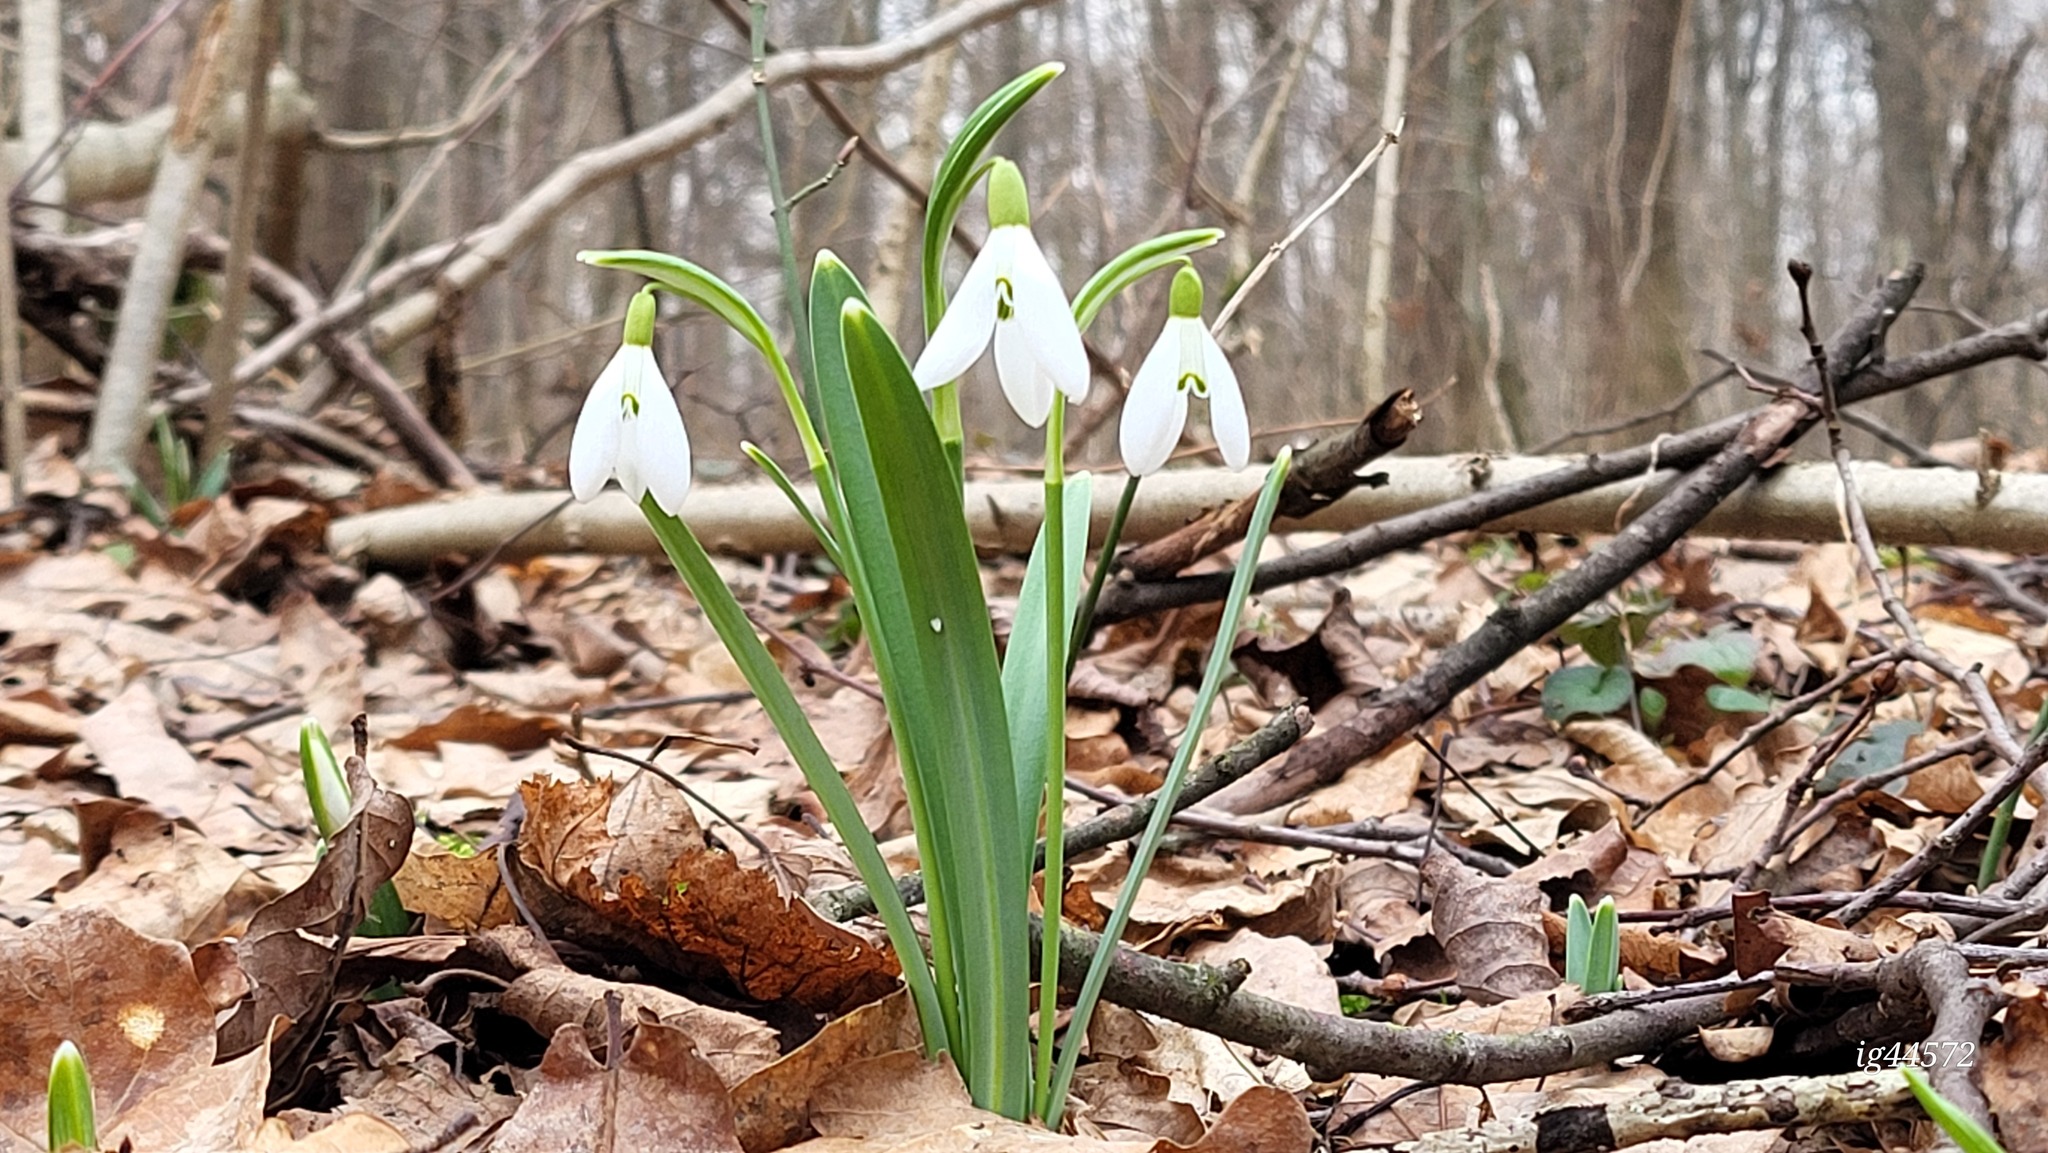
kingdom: Plantae
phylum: Tracheophyta
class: Liliopsida
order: Asparagales
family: Amaryllidaceae
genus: Galanthus
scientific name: Galanthus nivalis
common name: Snowdrop
